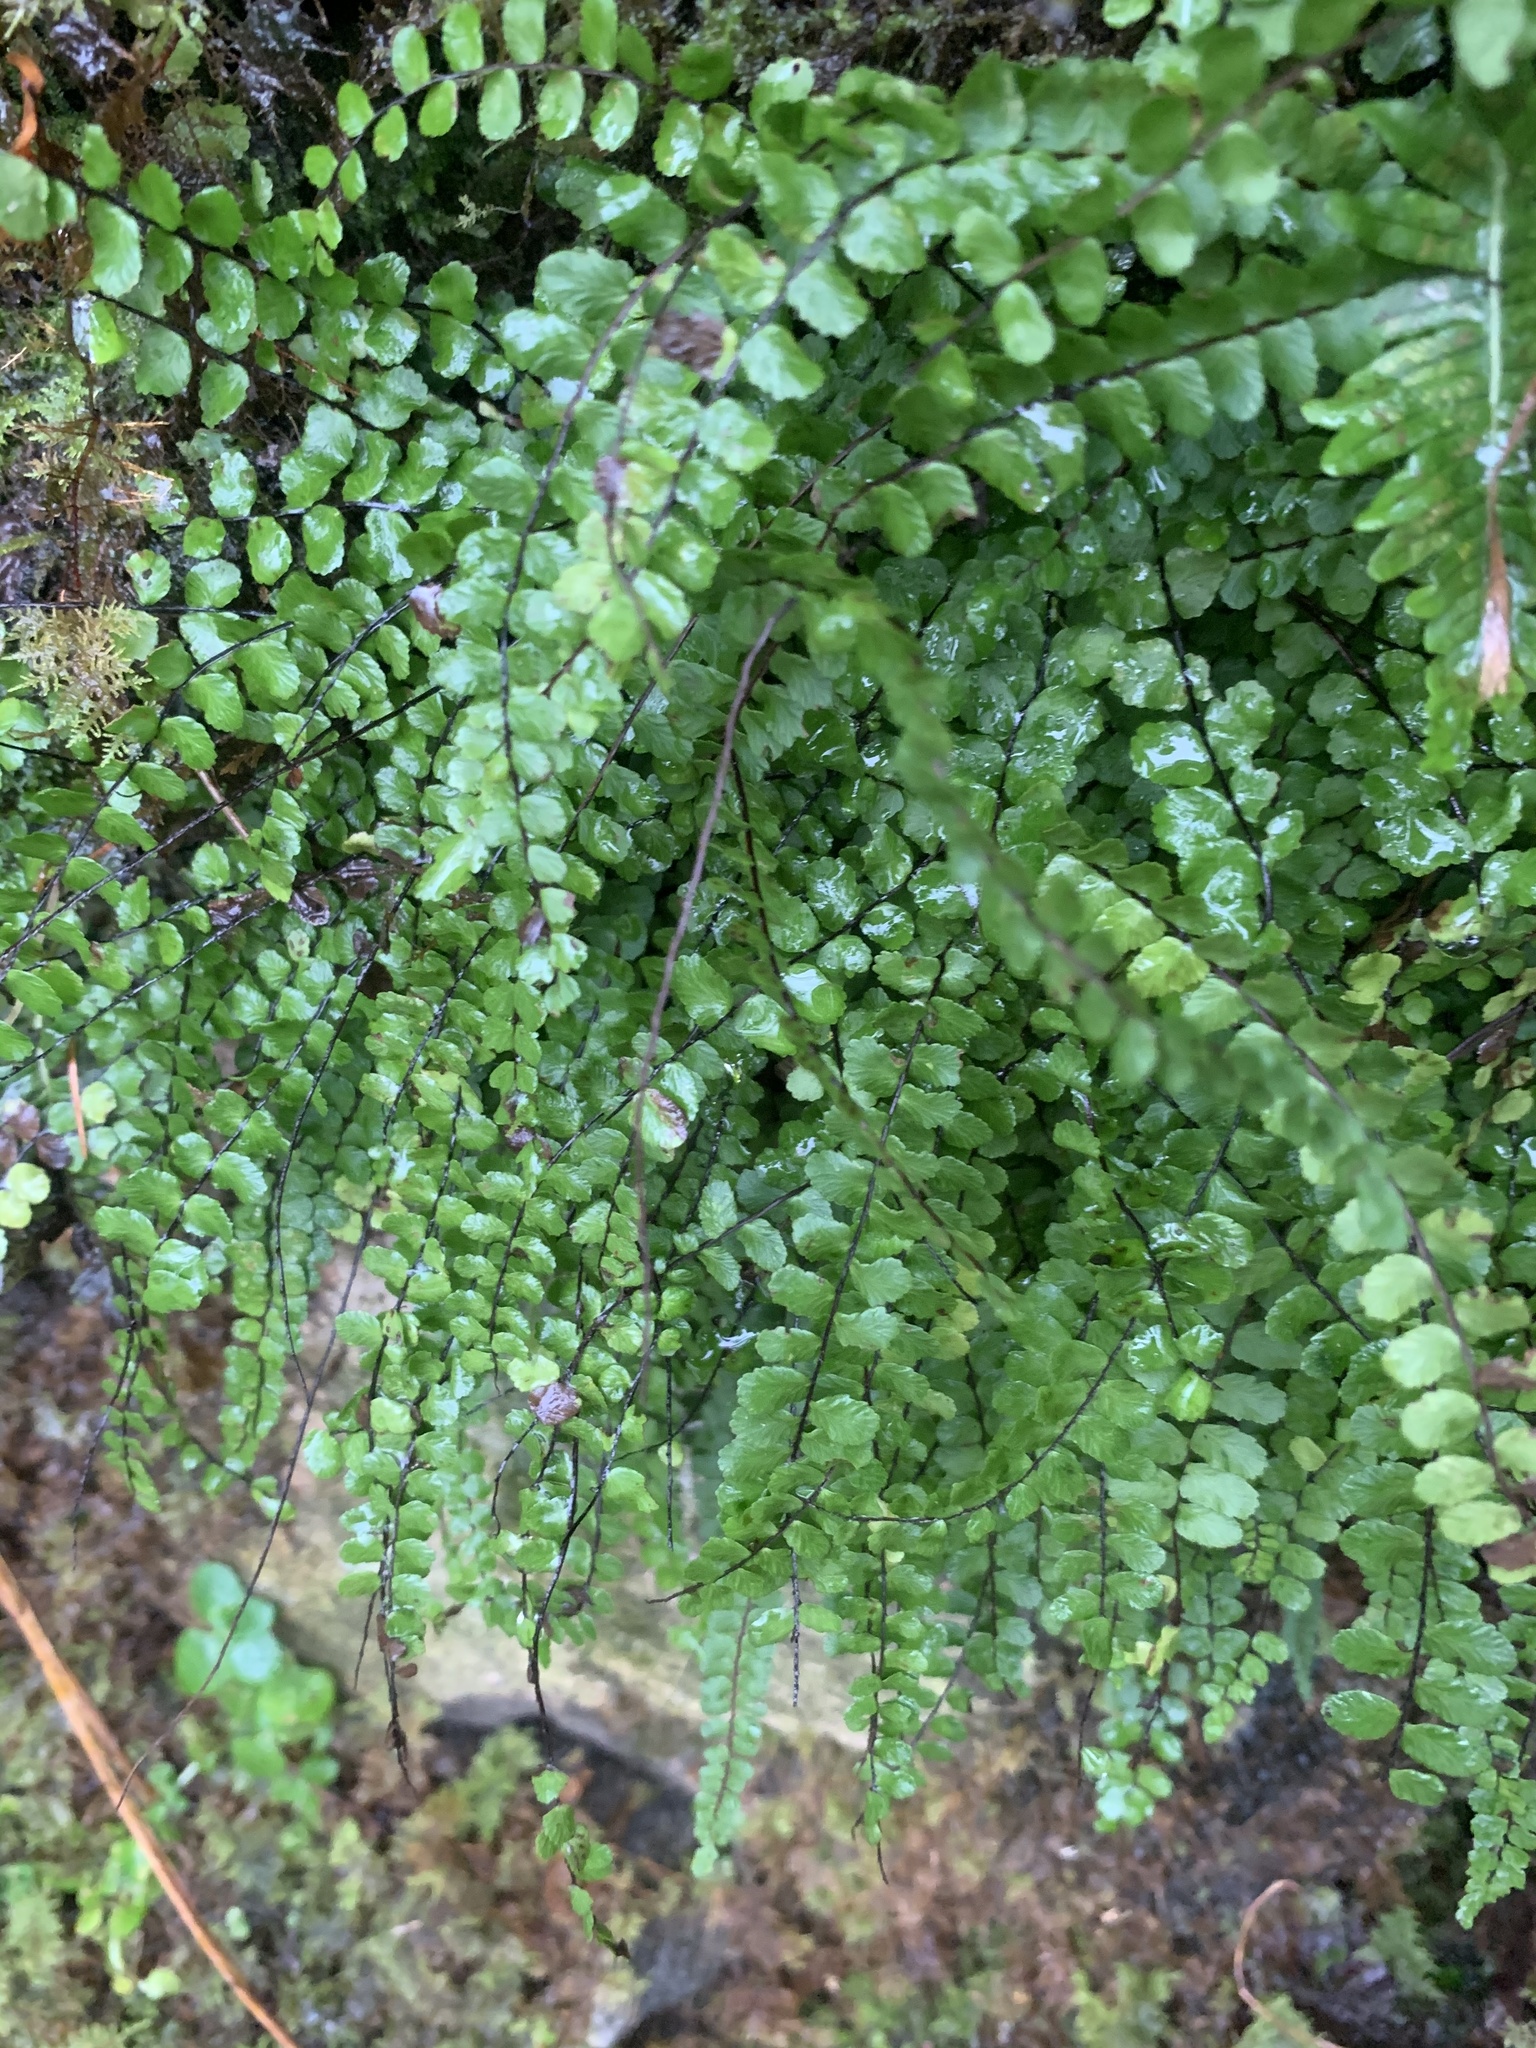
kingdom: Plantae
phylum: Tracheophyta
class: Polypodiopsida
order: Polypodiales
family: Aspleniaceae
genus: Asplenium
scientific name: Asplenium trichomanes
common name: Maidenhair spleenwort
